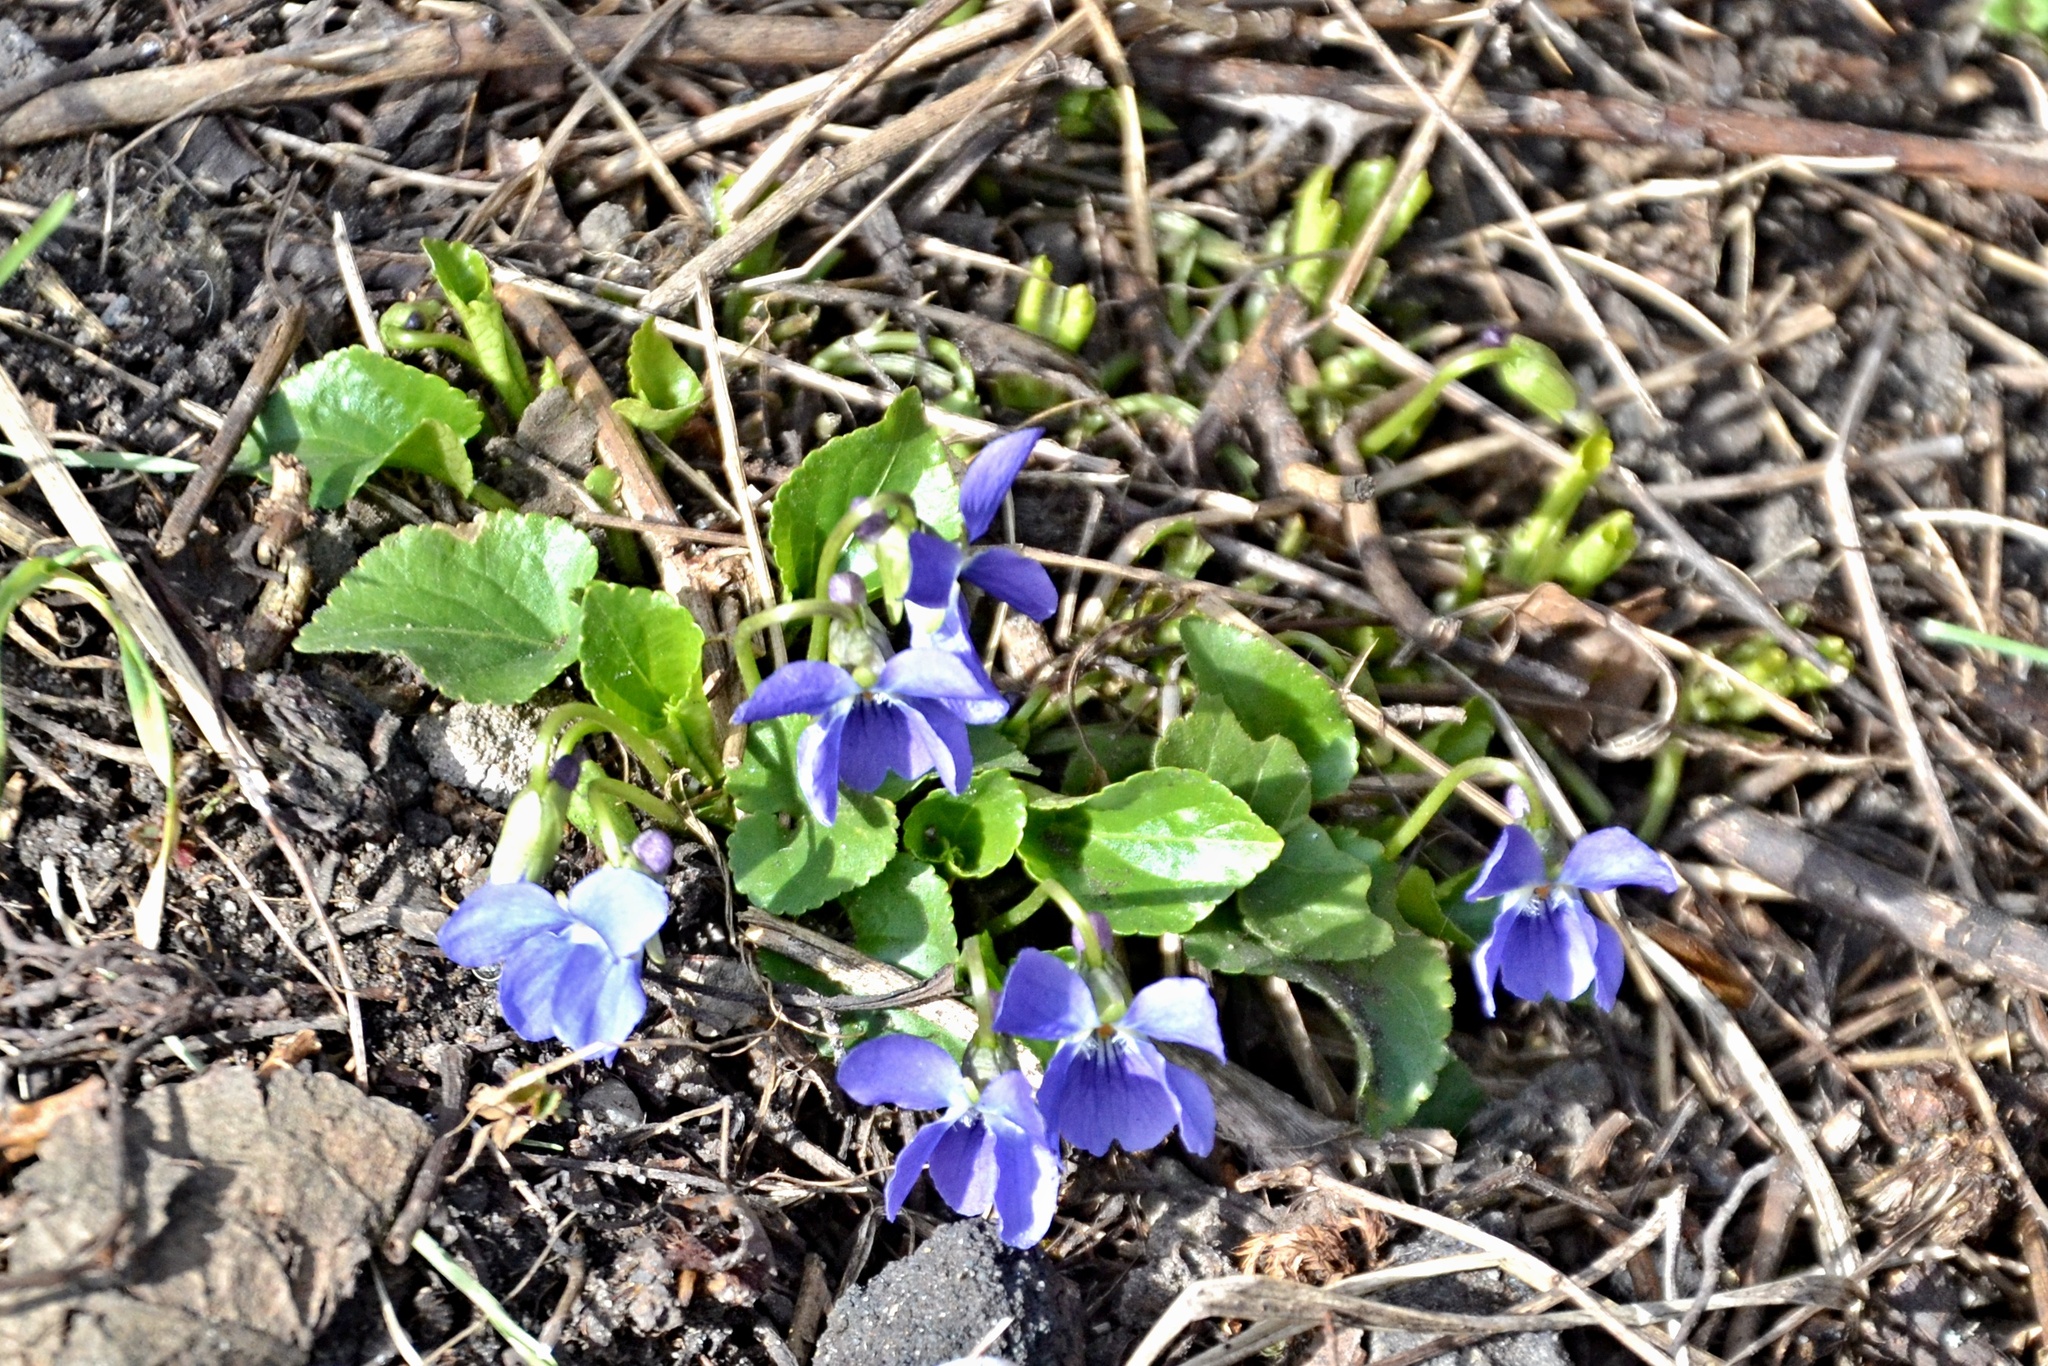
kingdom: Plantae
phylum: Tracheophyta
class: Magnoliopsida
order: Malpighiales
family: Violaceae
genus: Viola
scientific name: Viola odorata
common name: Sweet violet
